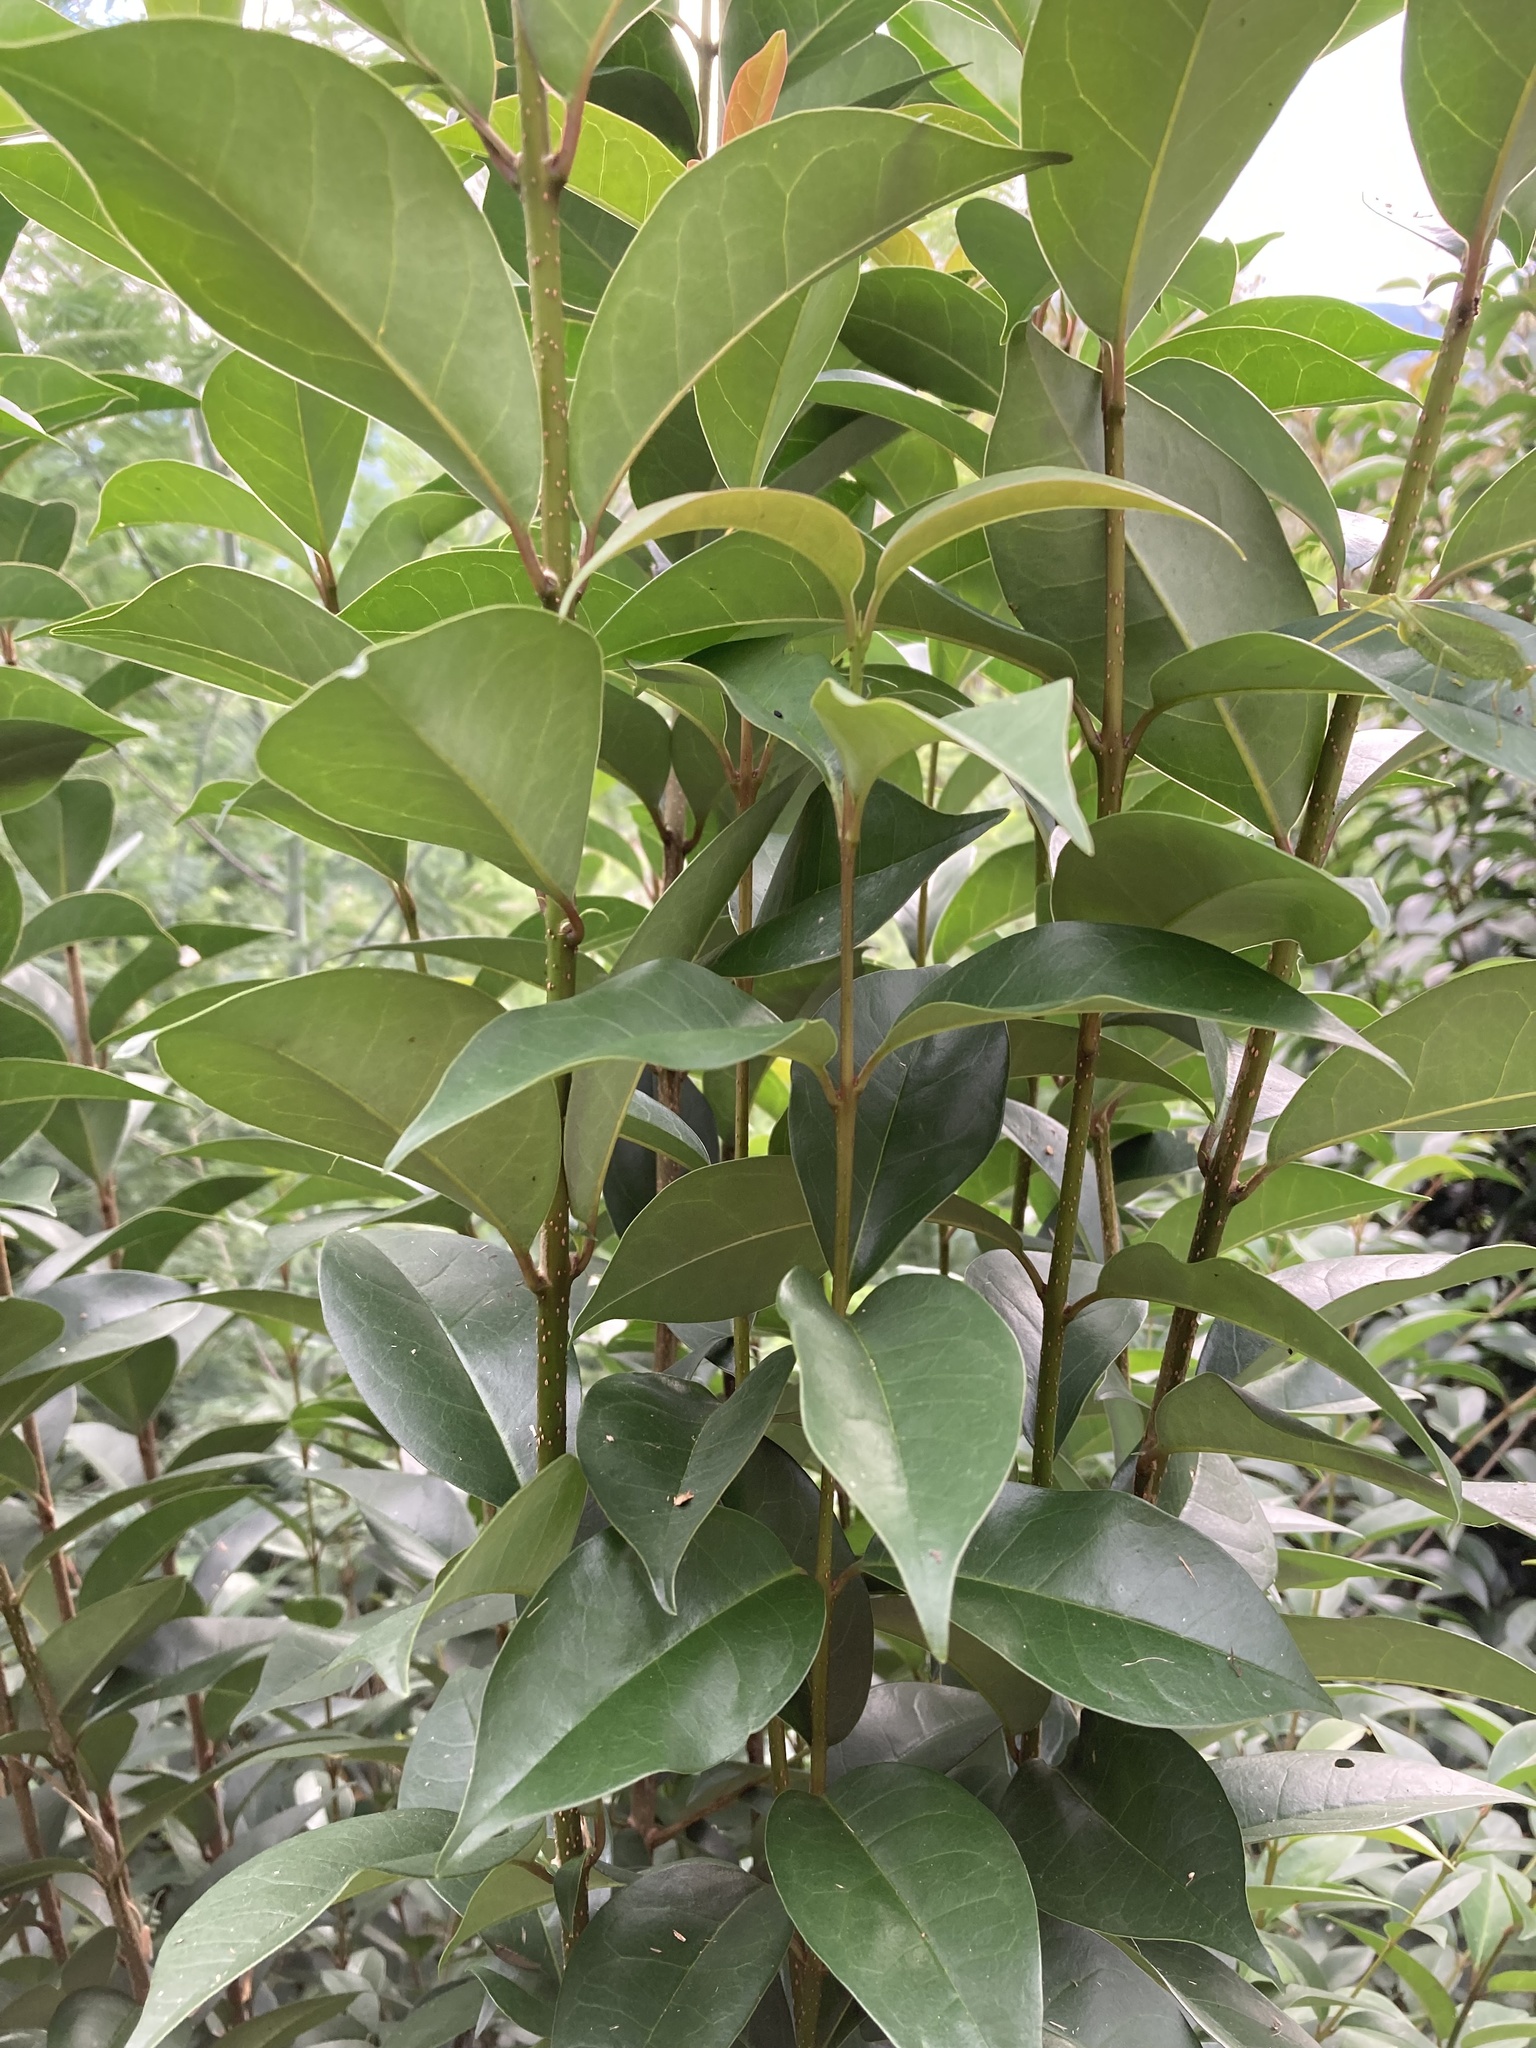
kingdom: Plantae
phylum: Tracheophyta
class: Magnoliopsida
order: Lamiales
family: Oleaceae
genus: Ligustrum
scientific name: Ligustrum lucidum
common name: Glossy privet
